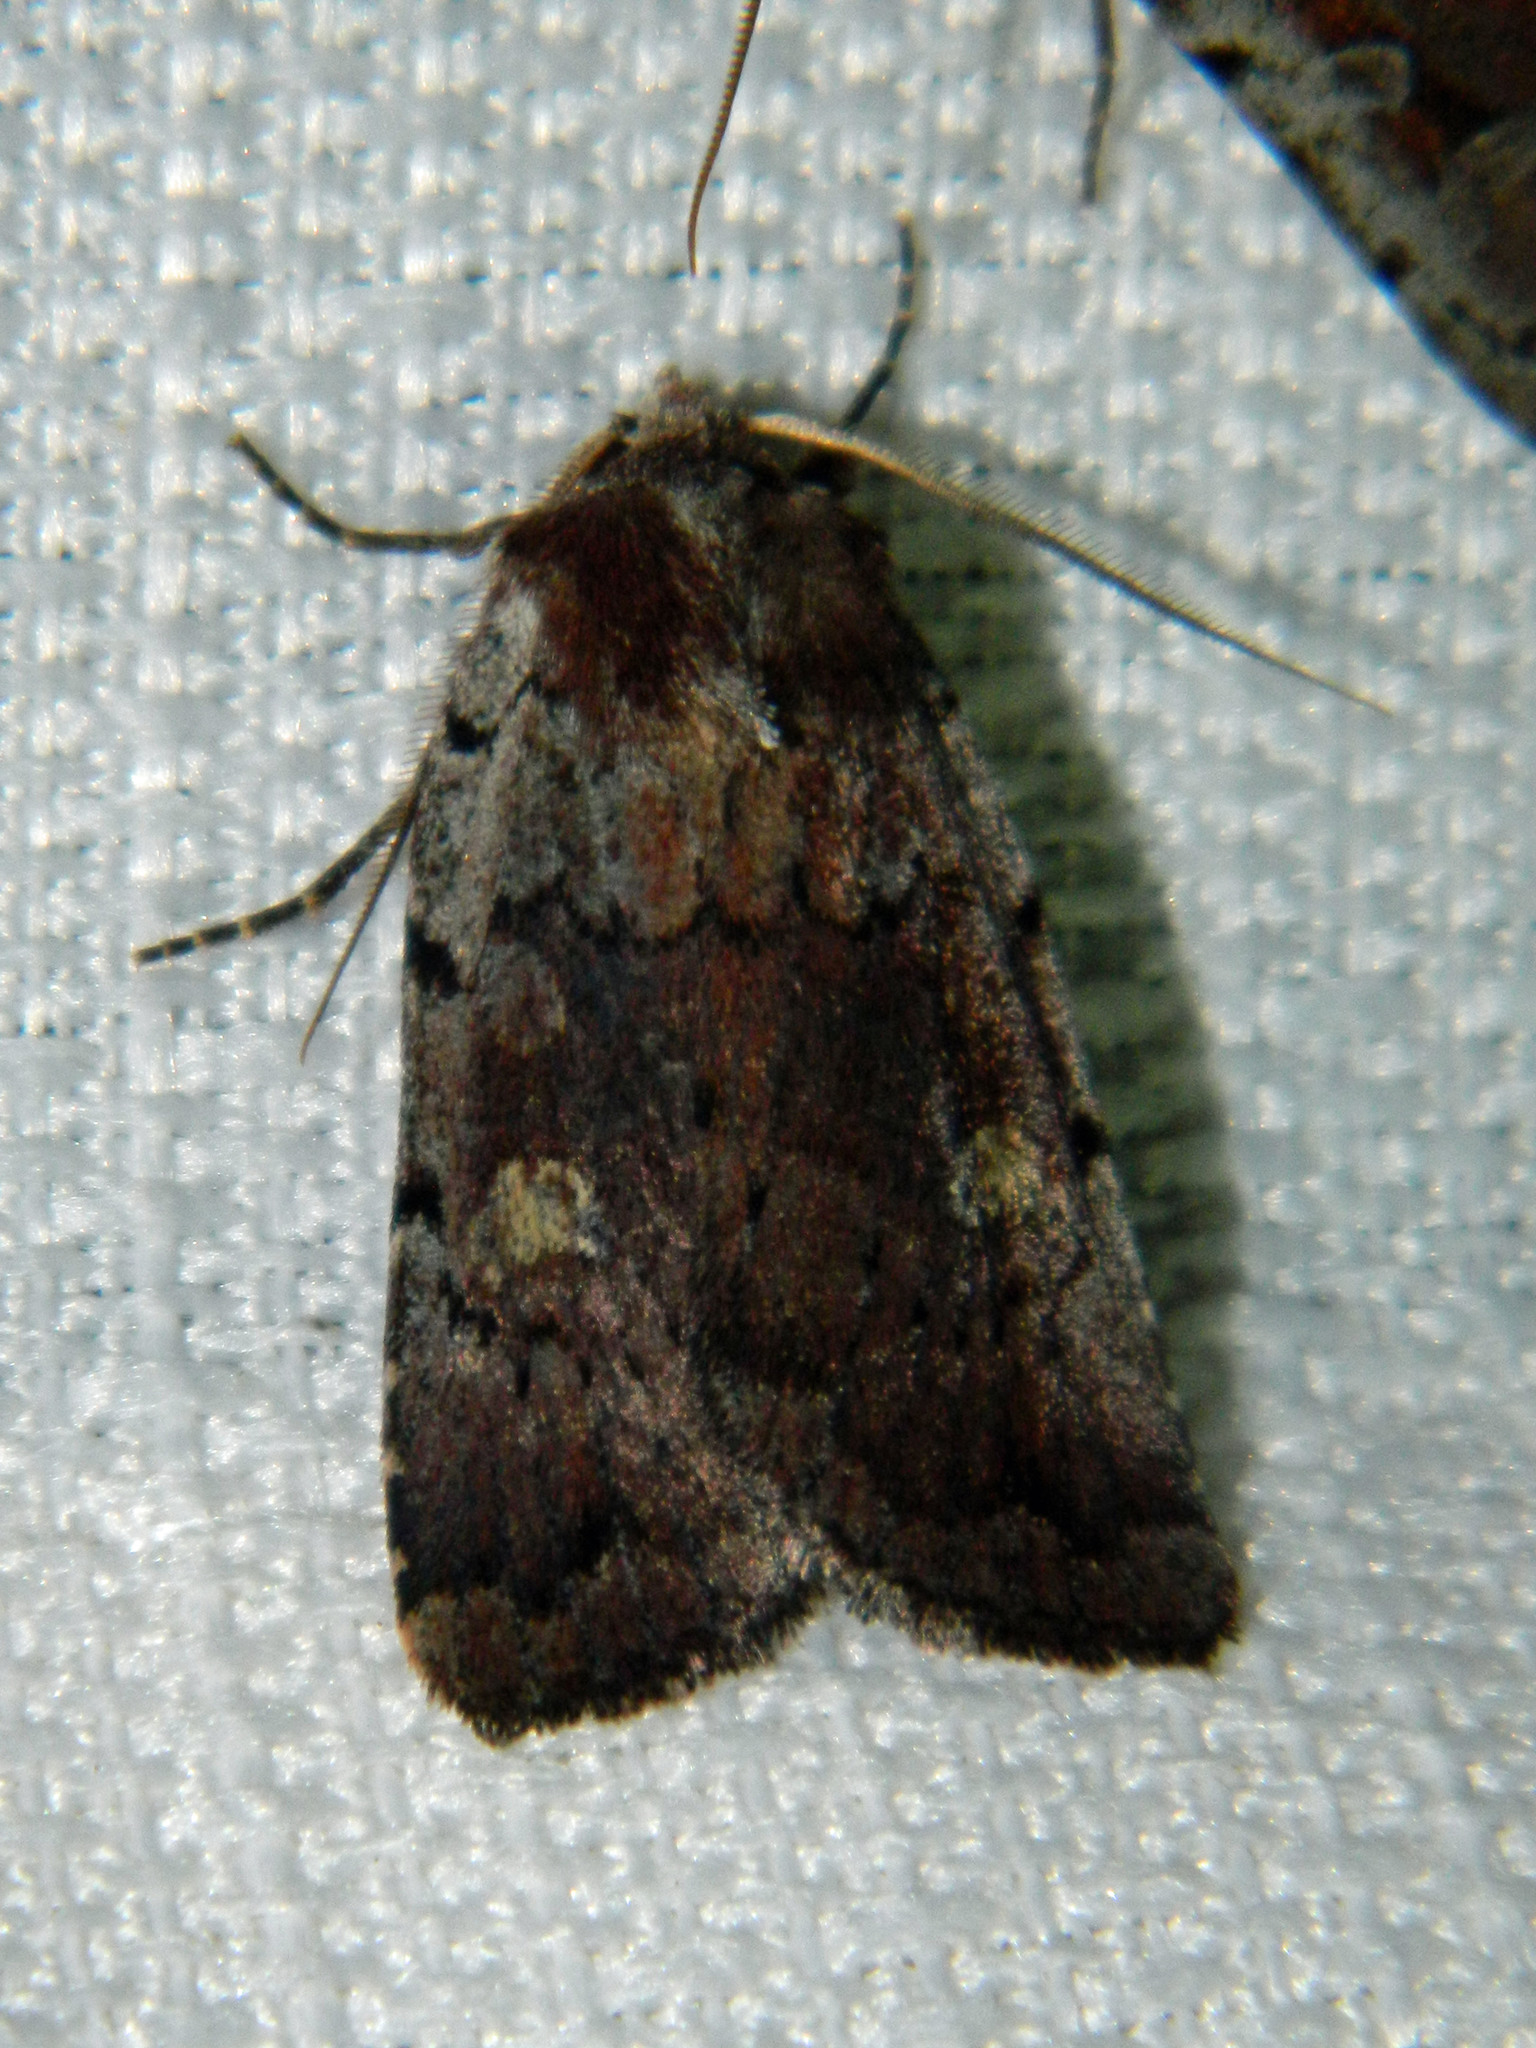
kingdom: Animalia
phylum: Arthropoda
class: Insecta
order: Lepidoptera
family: Noctuidae
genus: Xestia
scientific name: Xestia dilucida
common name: Dull reddish dart
